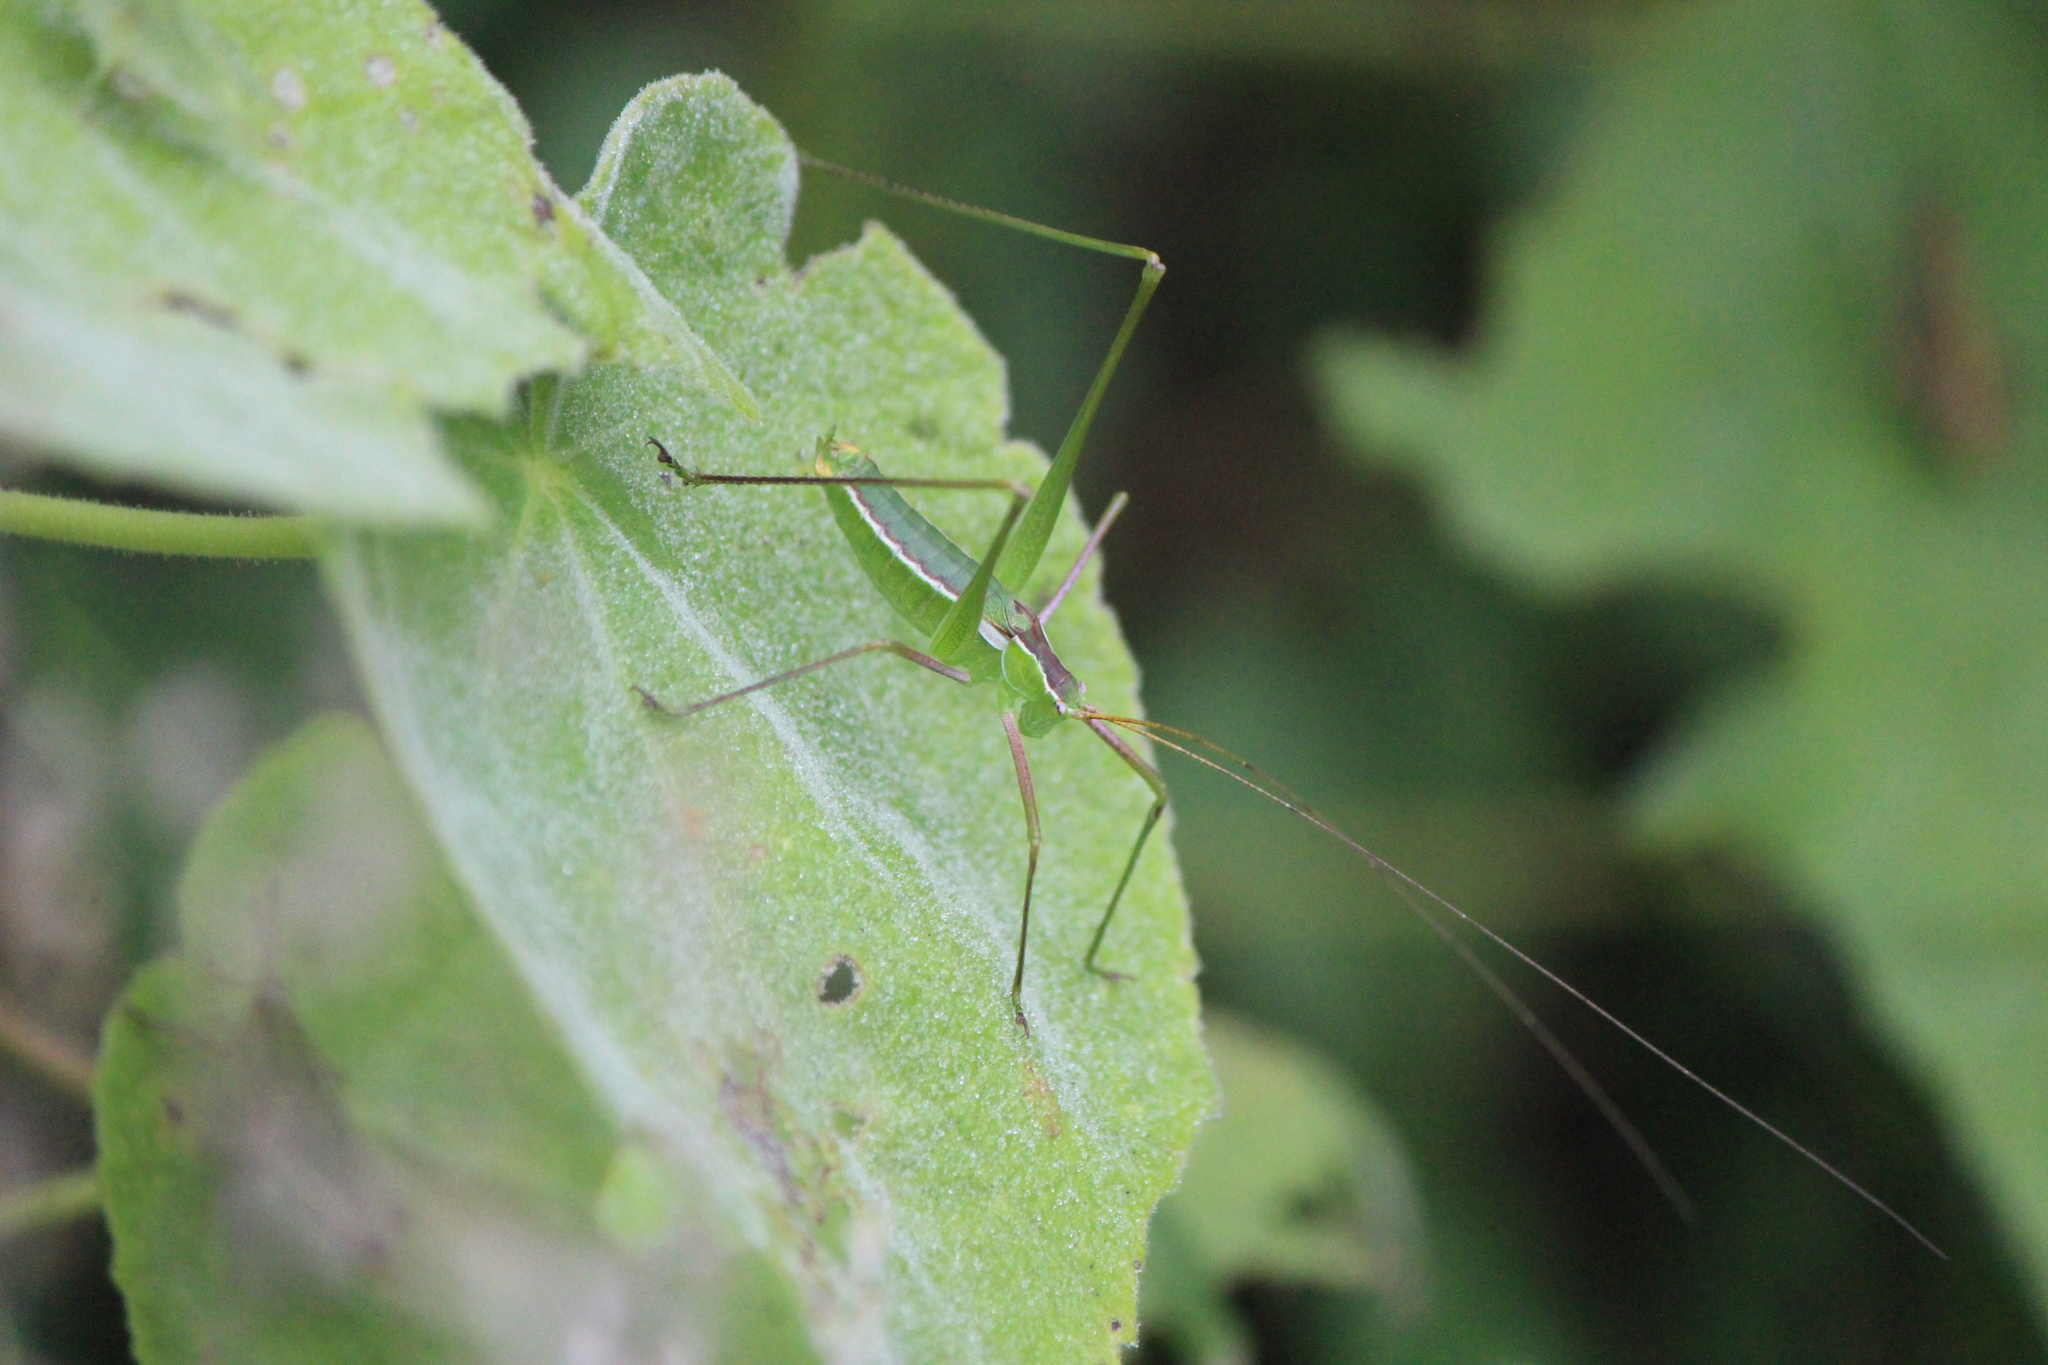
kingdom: Animalia
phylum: Arthropoda
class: Insecta
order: Orthoptera
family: Tettigoniidae
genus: Acanthorintes
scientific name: Acanthorintes tauriformis
